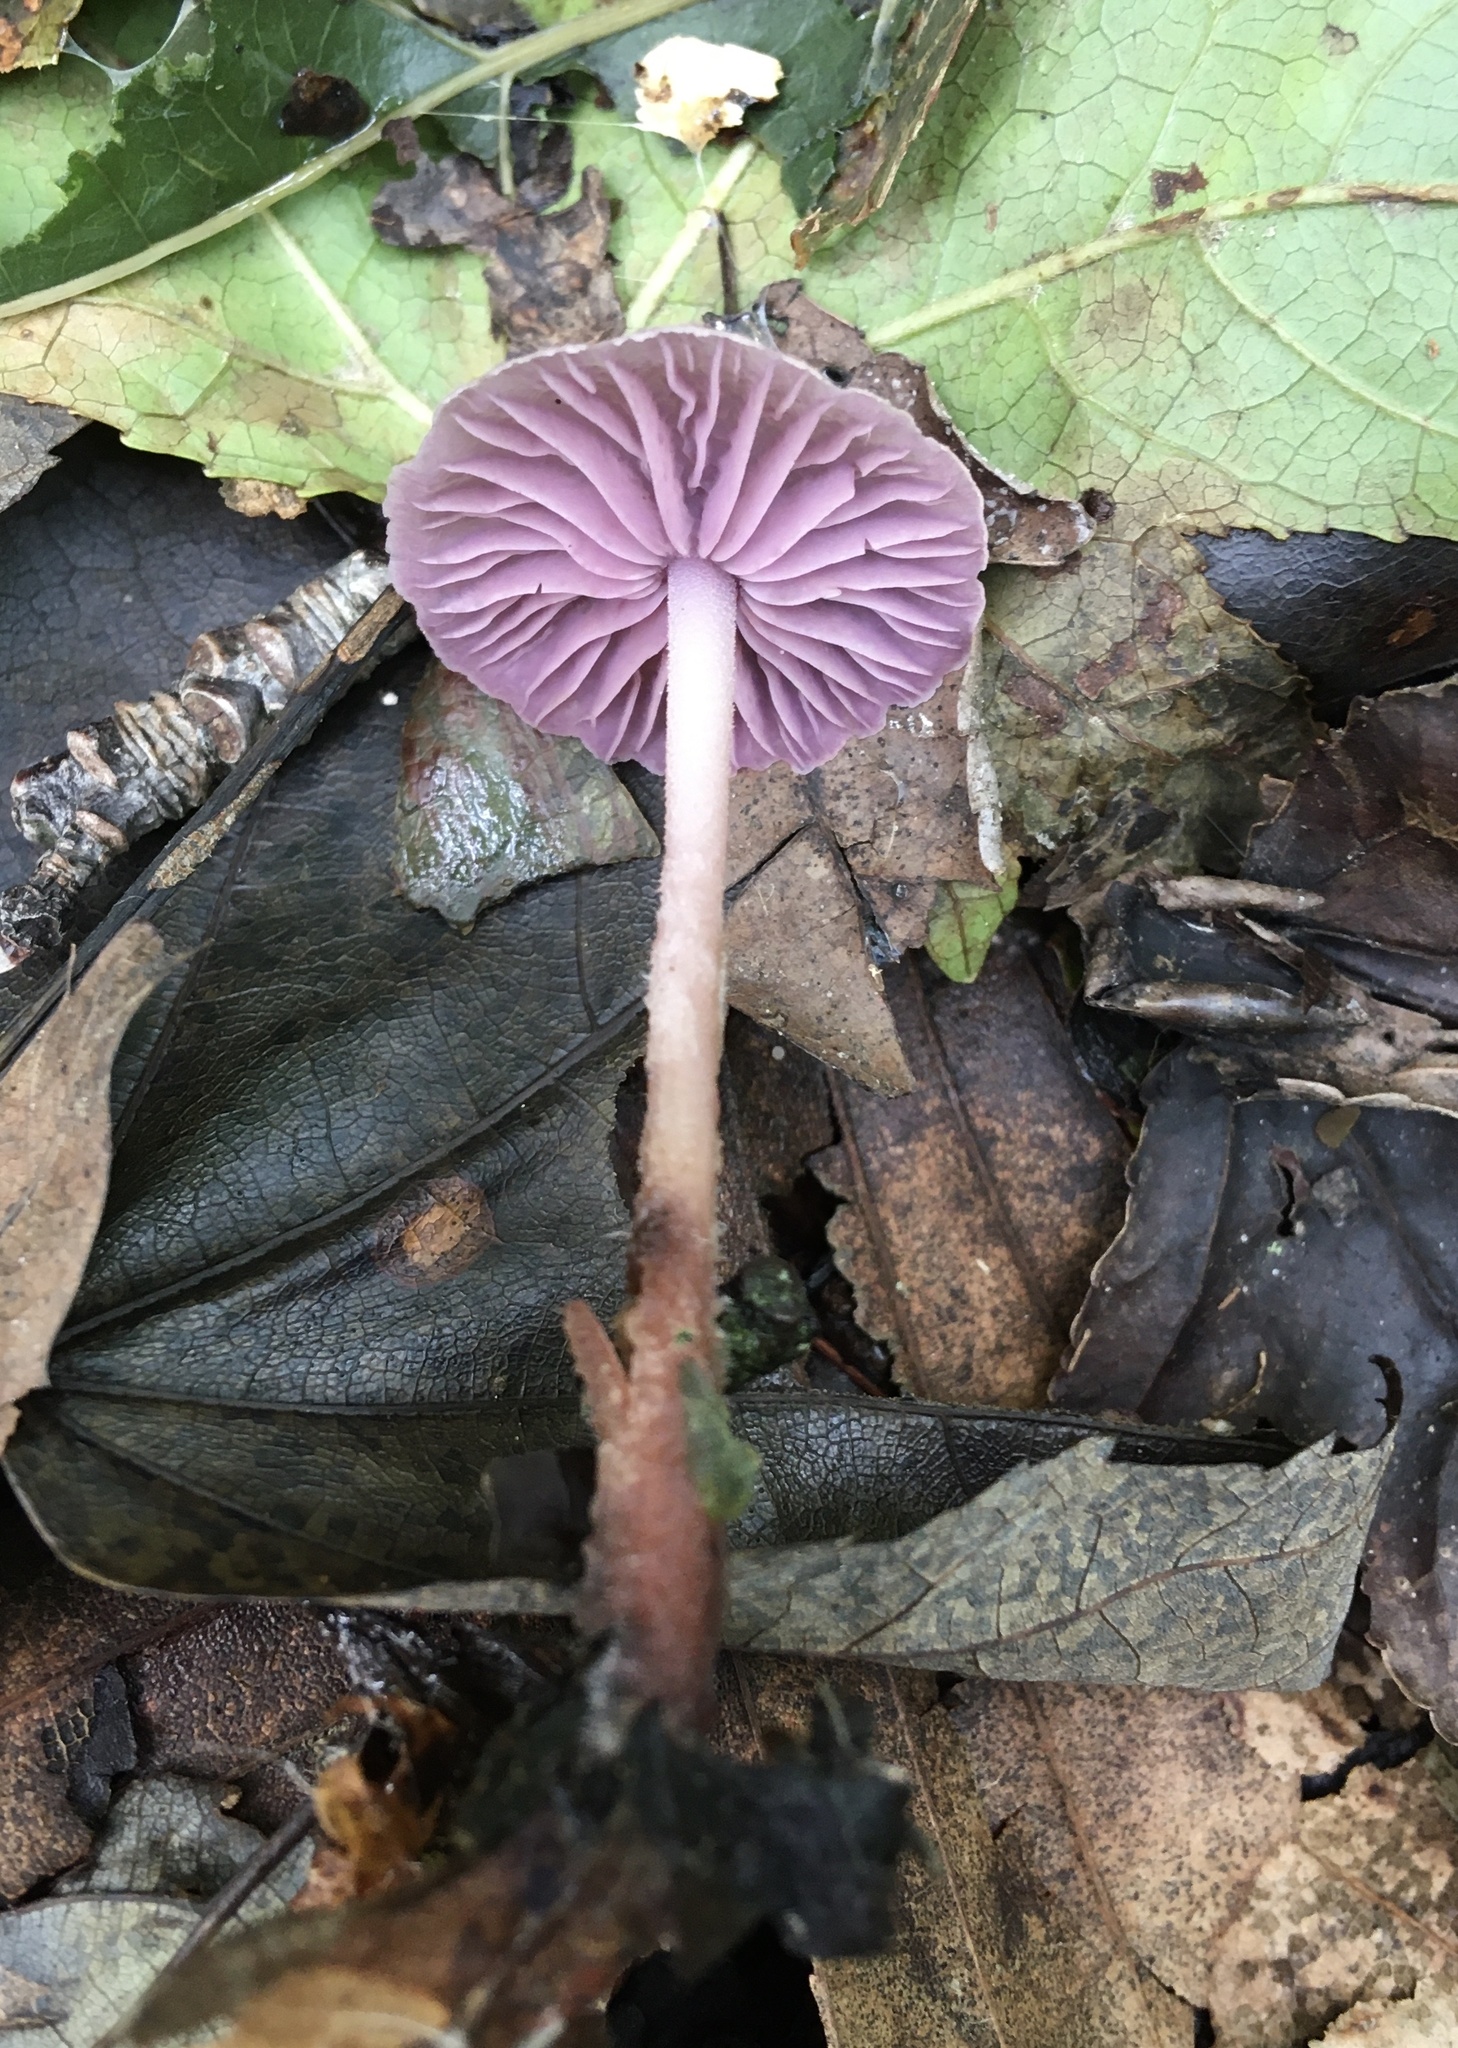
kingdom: Fungi
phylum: Basidiomycota
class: Agaricomycetes
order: Agaricales
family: Omphalotaceae
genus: Gymnopus
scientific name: Gymnopus iocephalus
